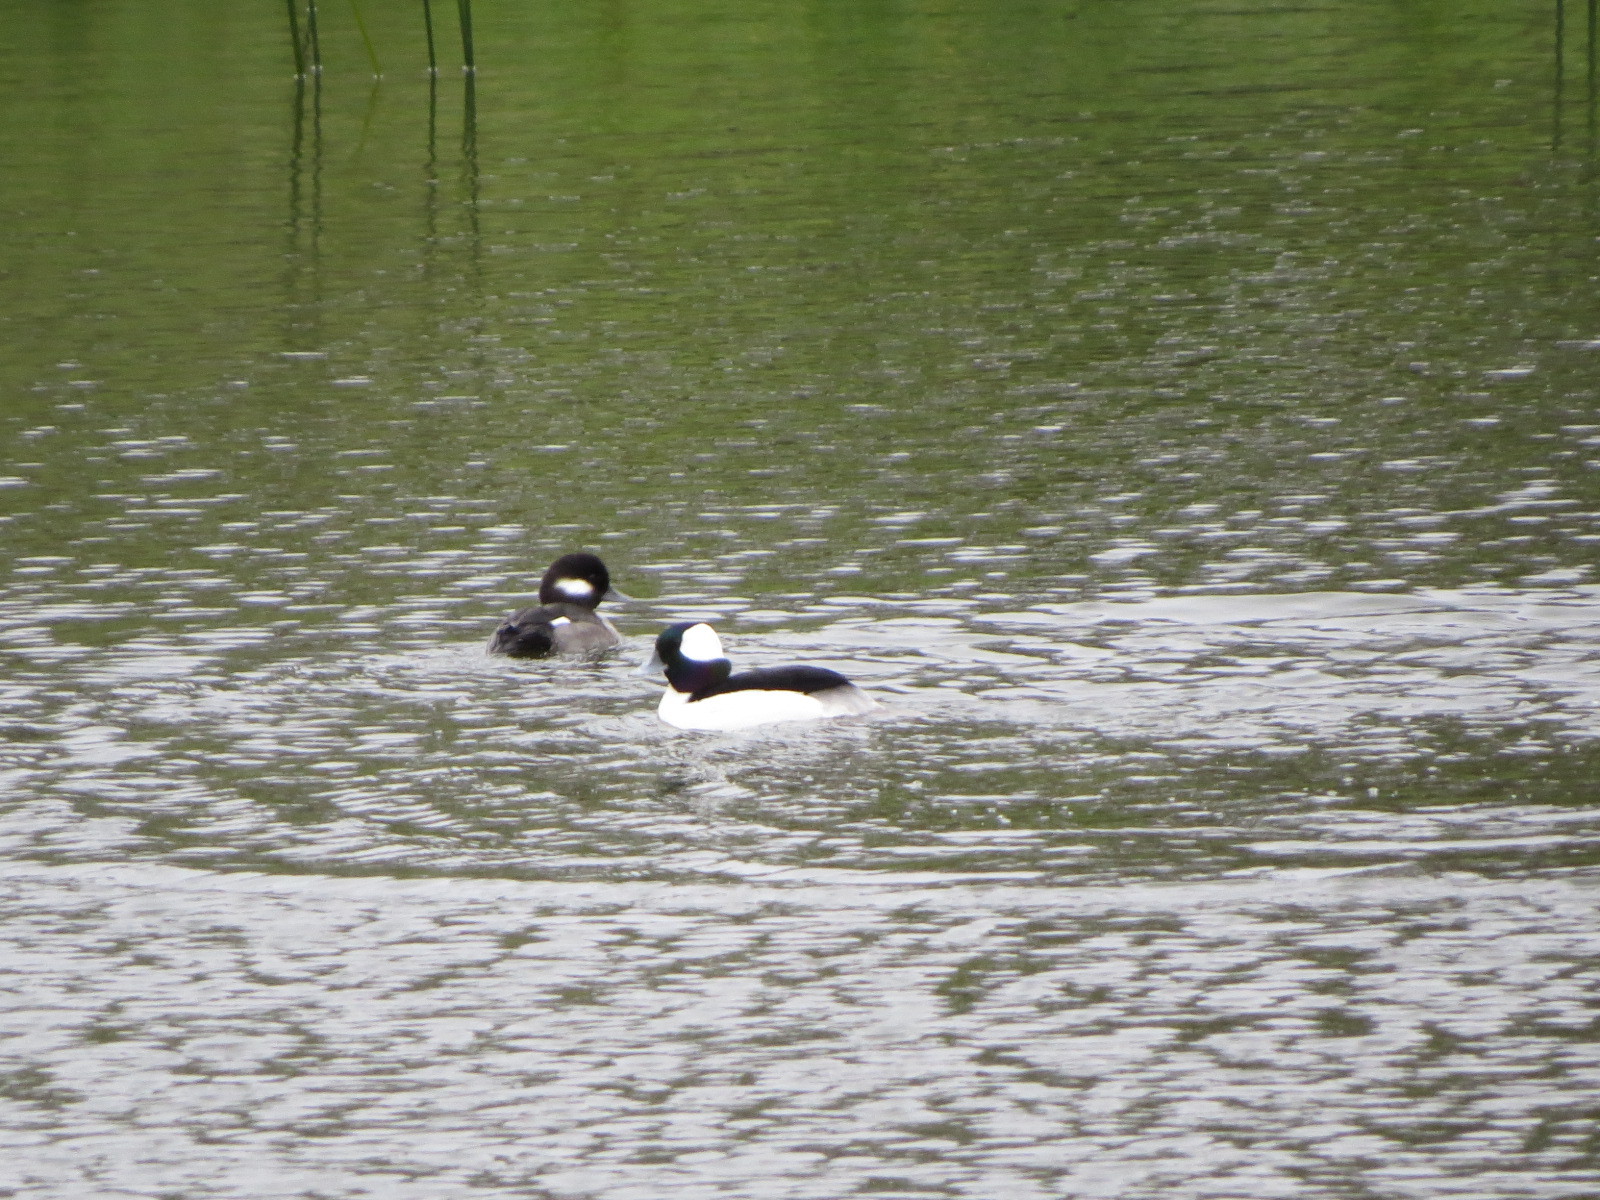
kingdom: Animalia
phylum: Chordata
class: Aves
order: Anseriformes
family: Anatidae
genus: Bucephala
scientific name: Bucephala albeola
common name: Bufflehead
